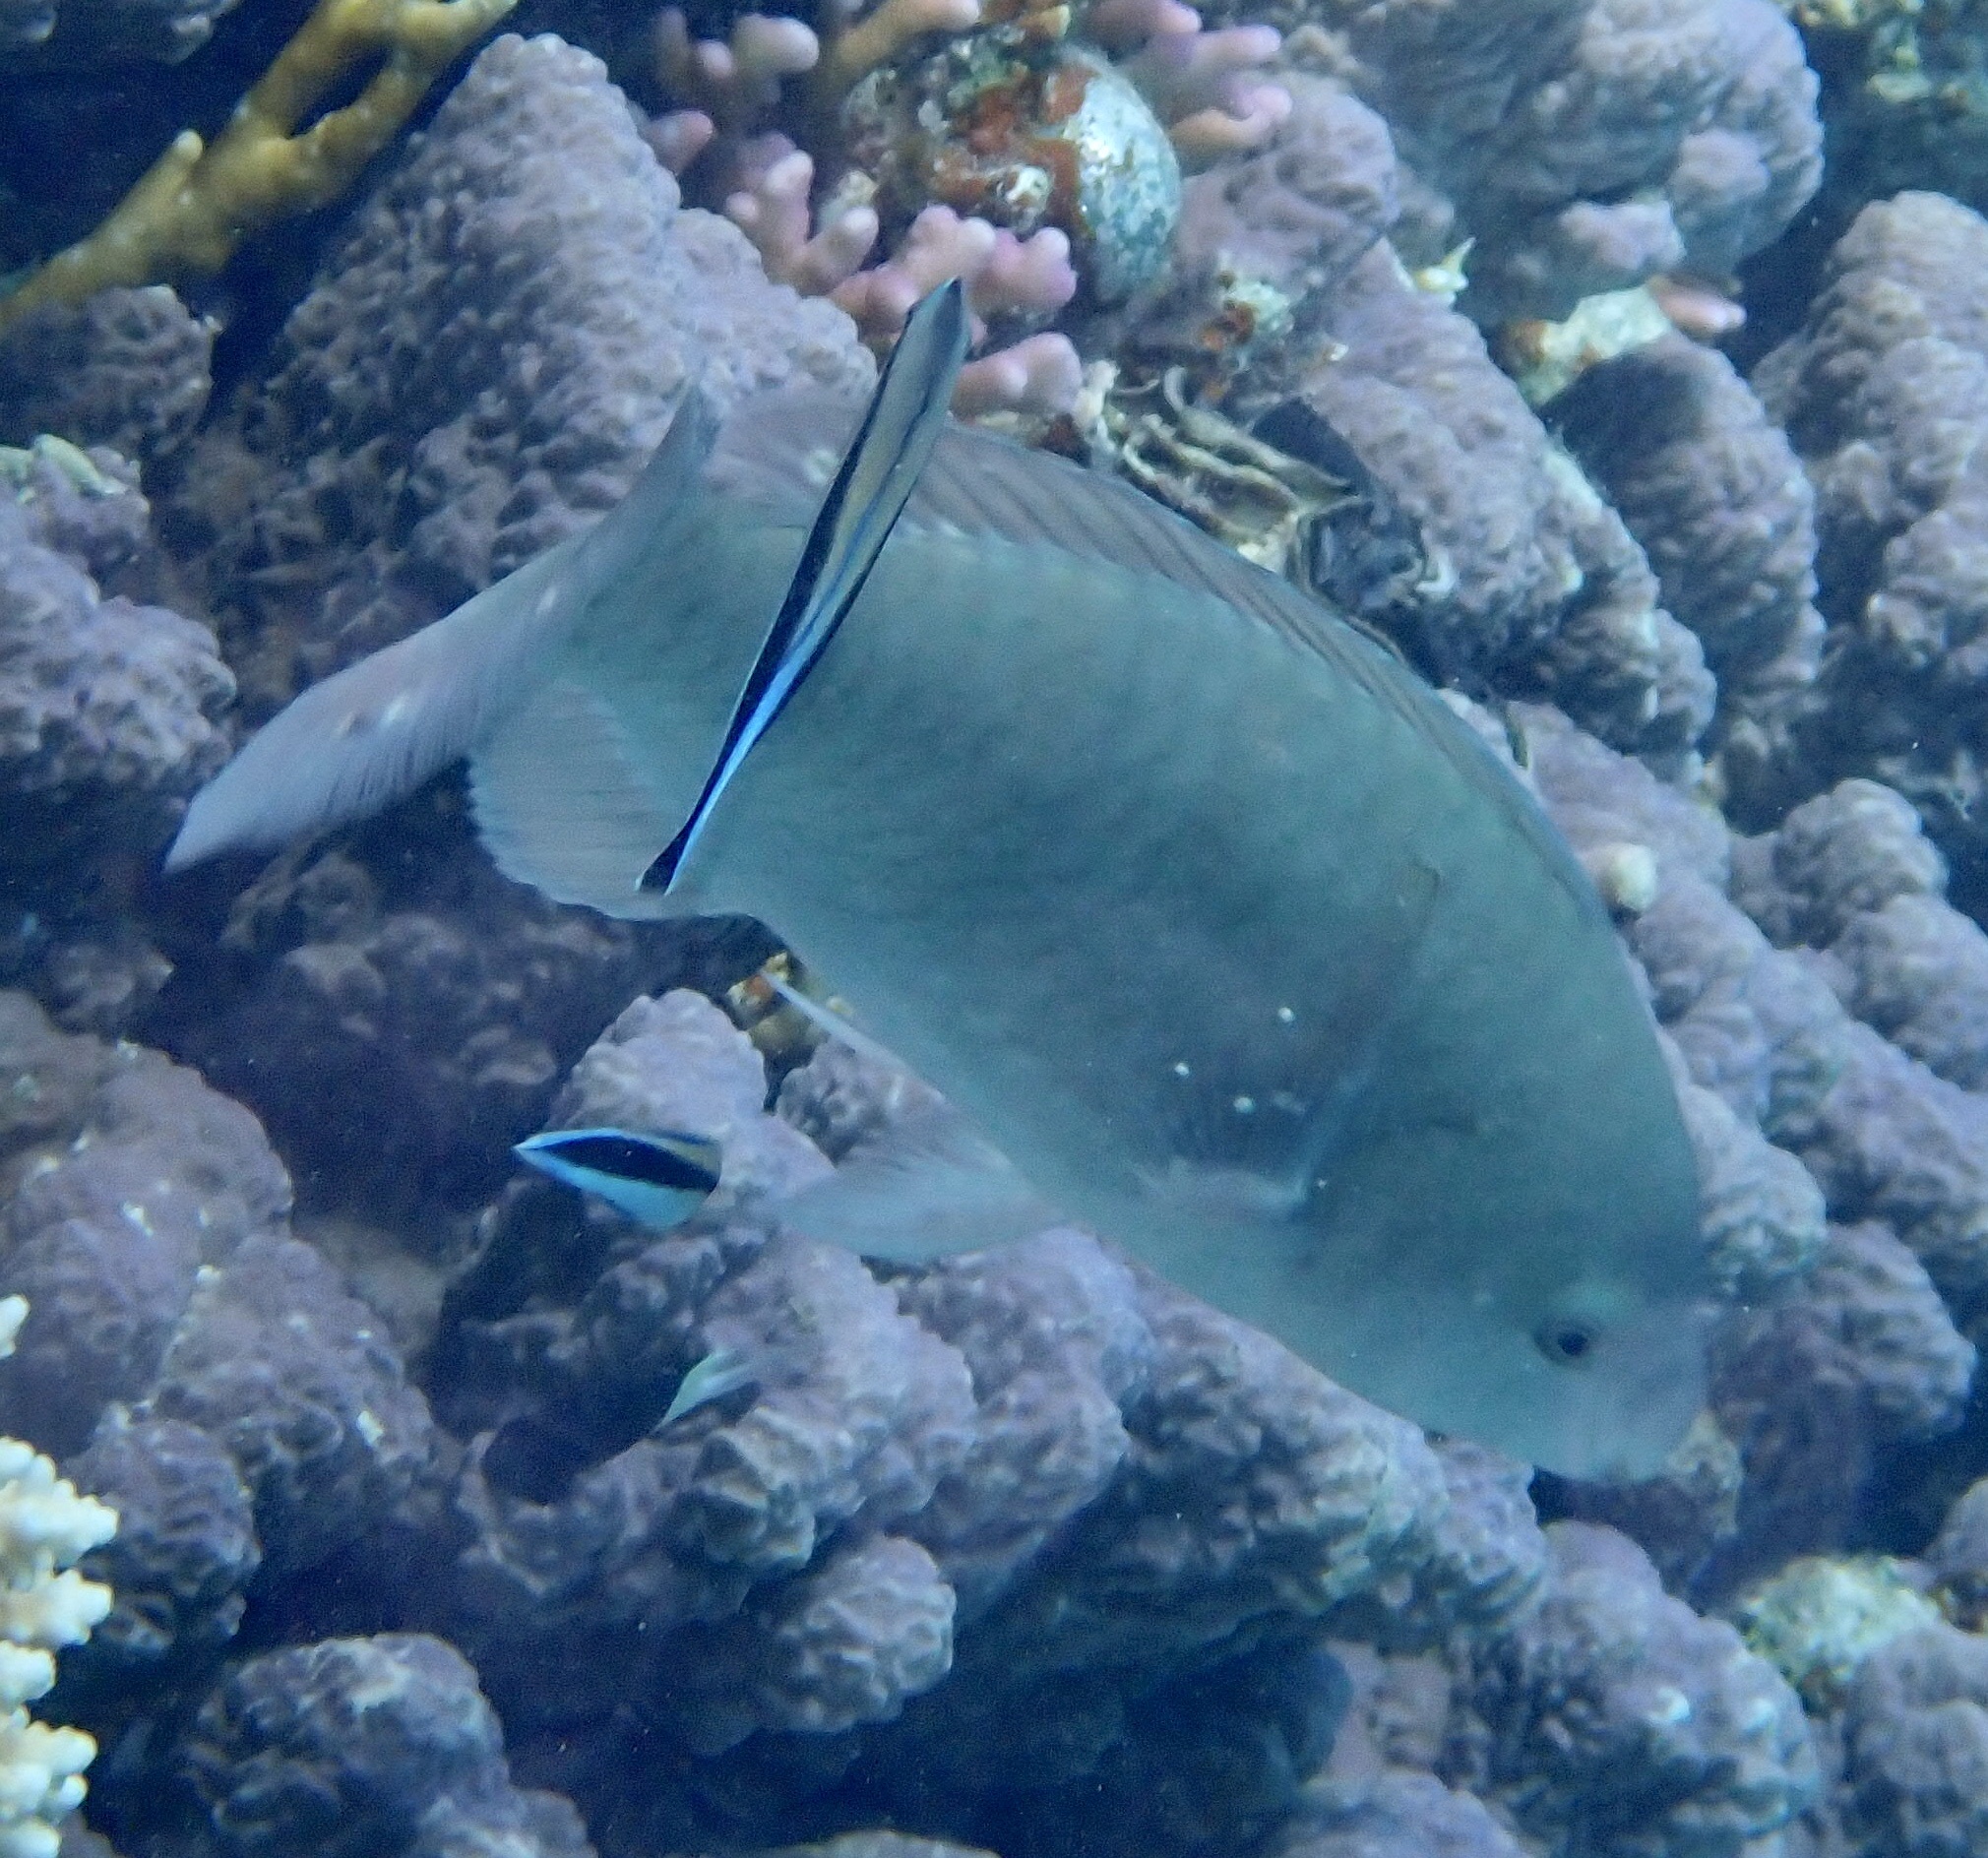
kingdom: Animalia
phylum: Chordata
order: Perciformes
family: Scaridae
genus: Hipposcarus
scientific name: Hipposcarus harid
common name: Candelamoa parrotfish
